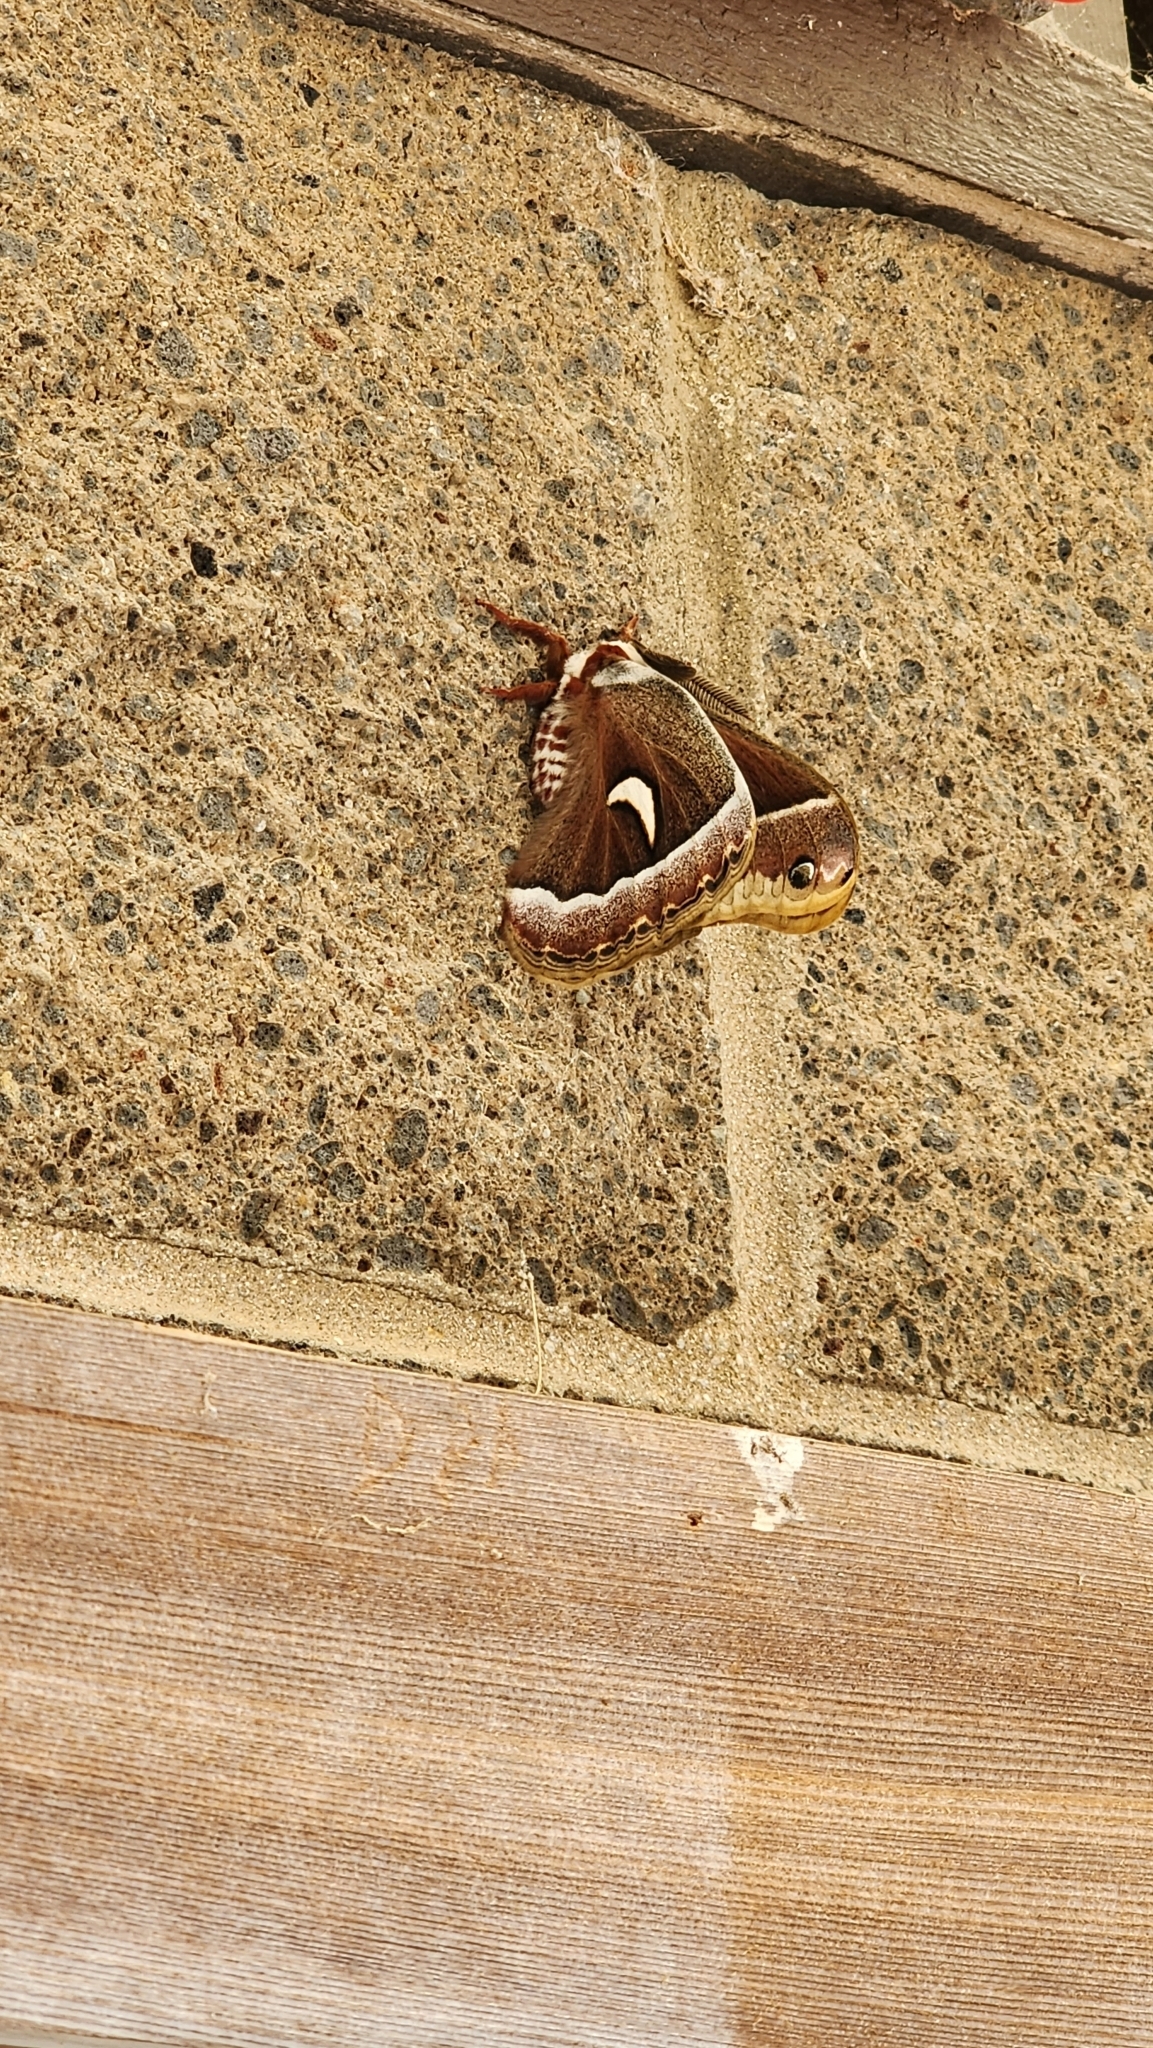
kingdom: Animalia
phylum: Arthropoda
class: Insecta
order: Lepidoptera
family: Saturniidae
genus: Hyalophora
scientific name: Hyalophora euryalus
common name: Ceanothus silkmoth
